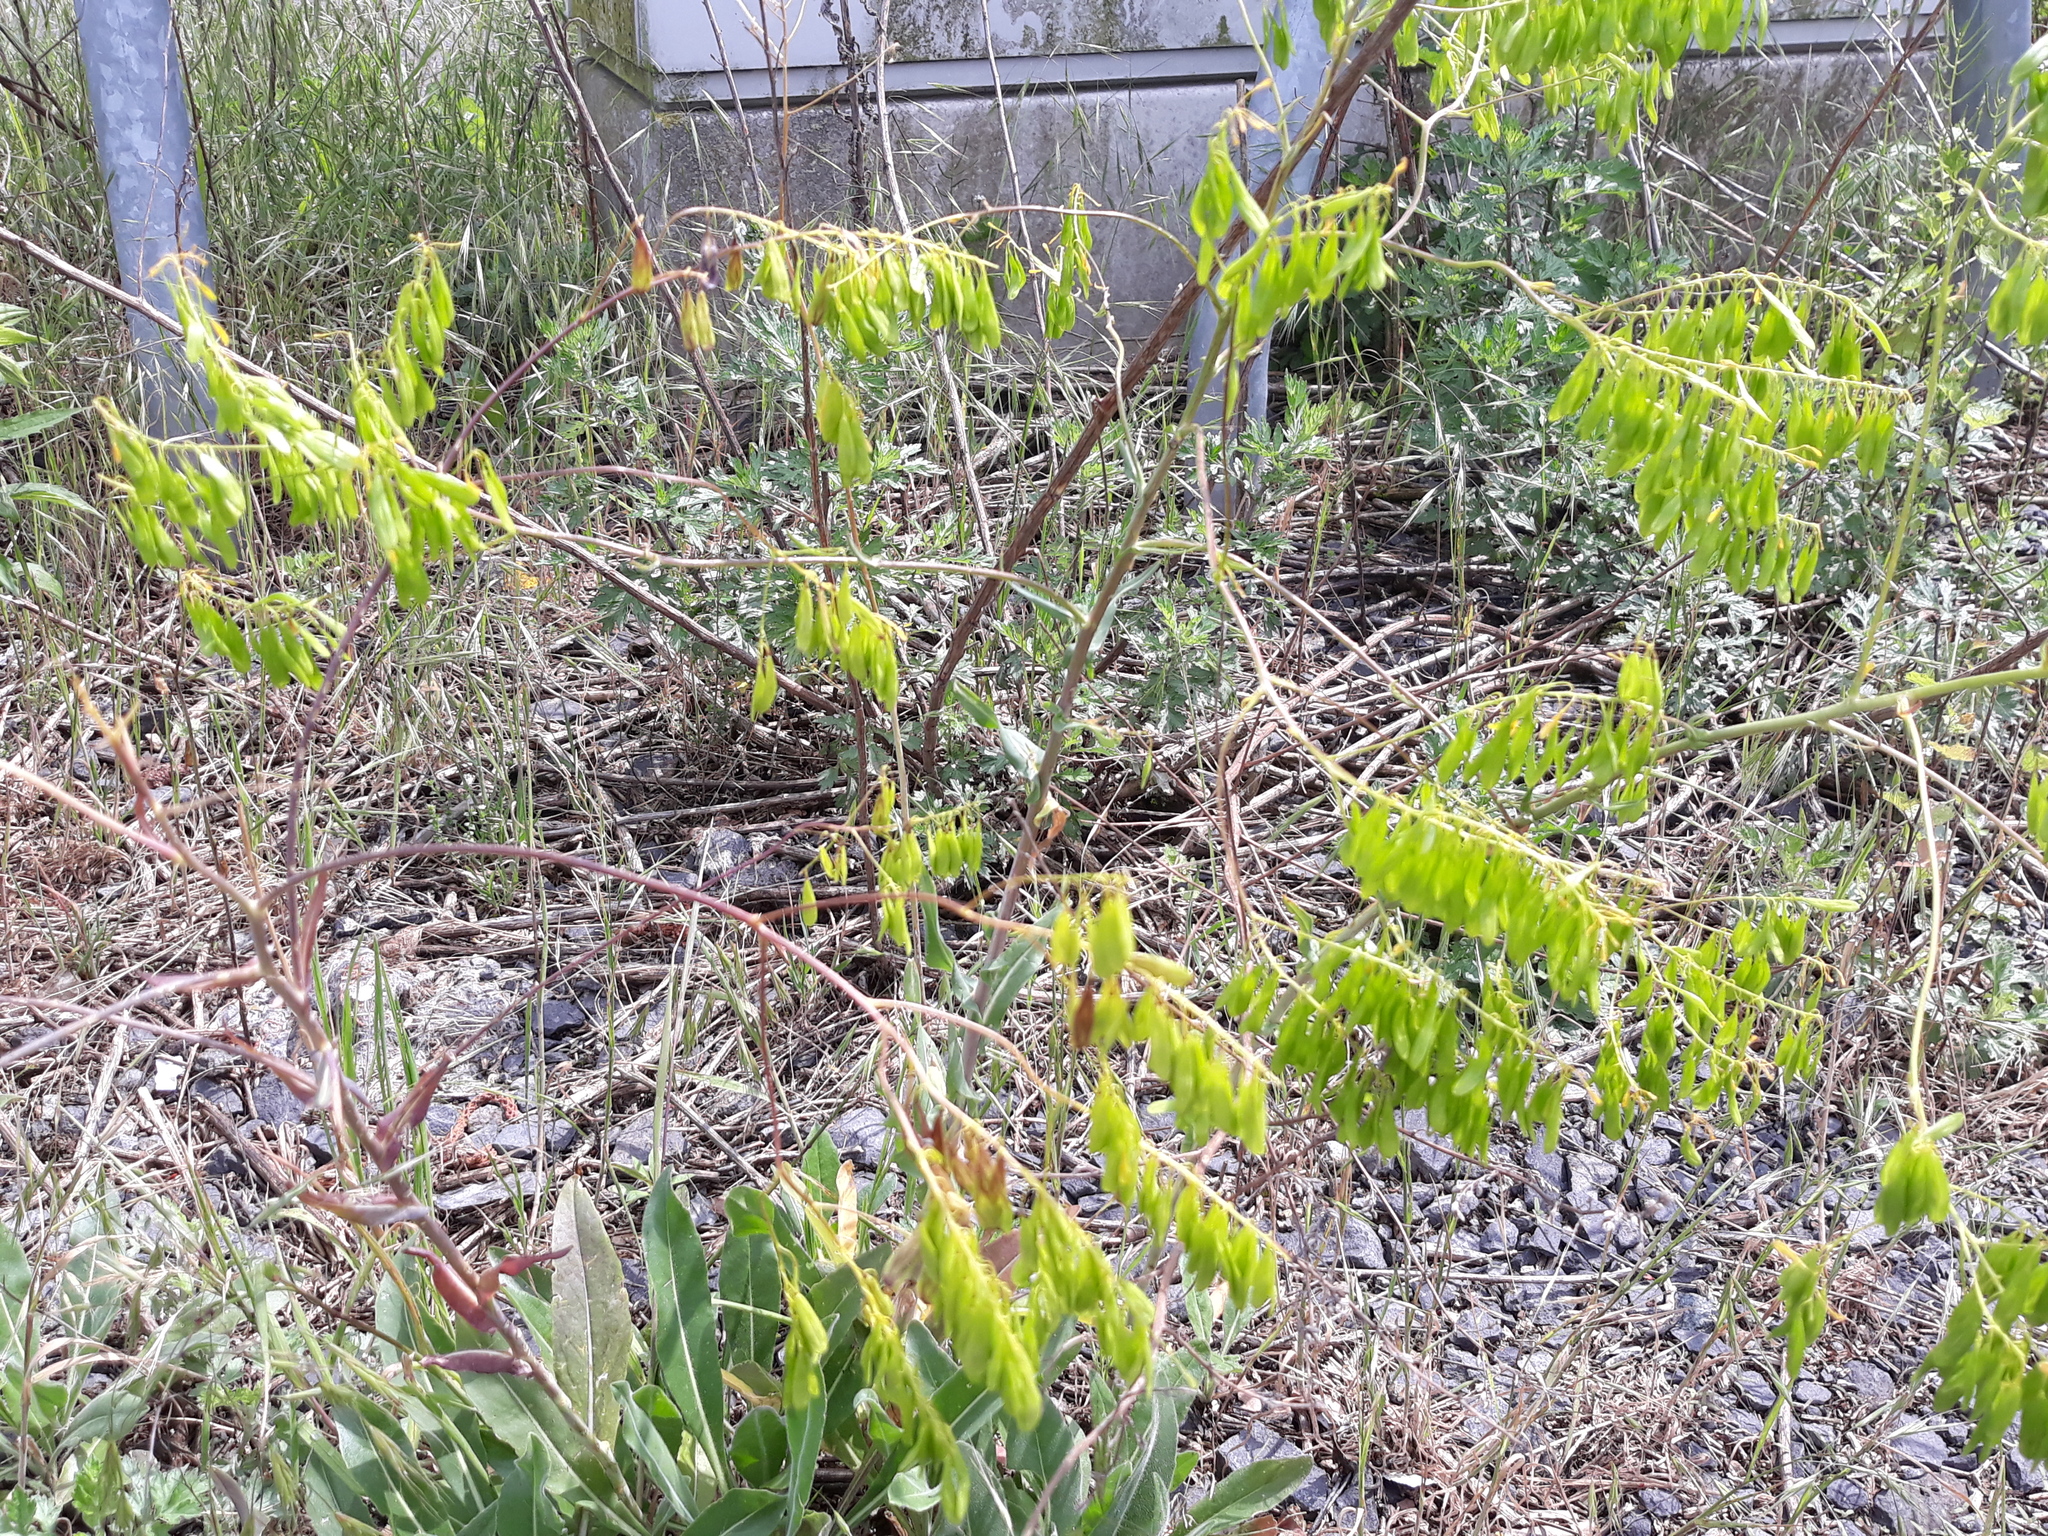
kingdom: Plantae
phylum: Tracheophyta
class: Magnoliopsida
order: Brassicales
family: Brassicaceae
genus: Isatis
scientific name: Isatis tinctoria
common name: Woad
